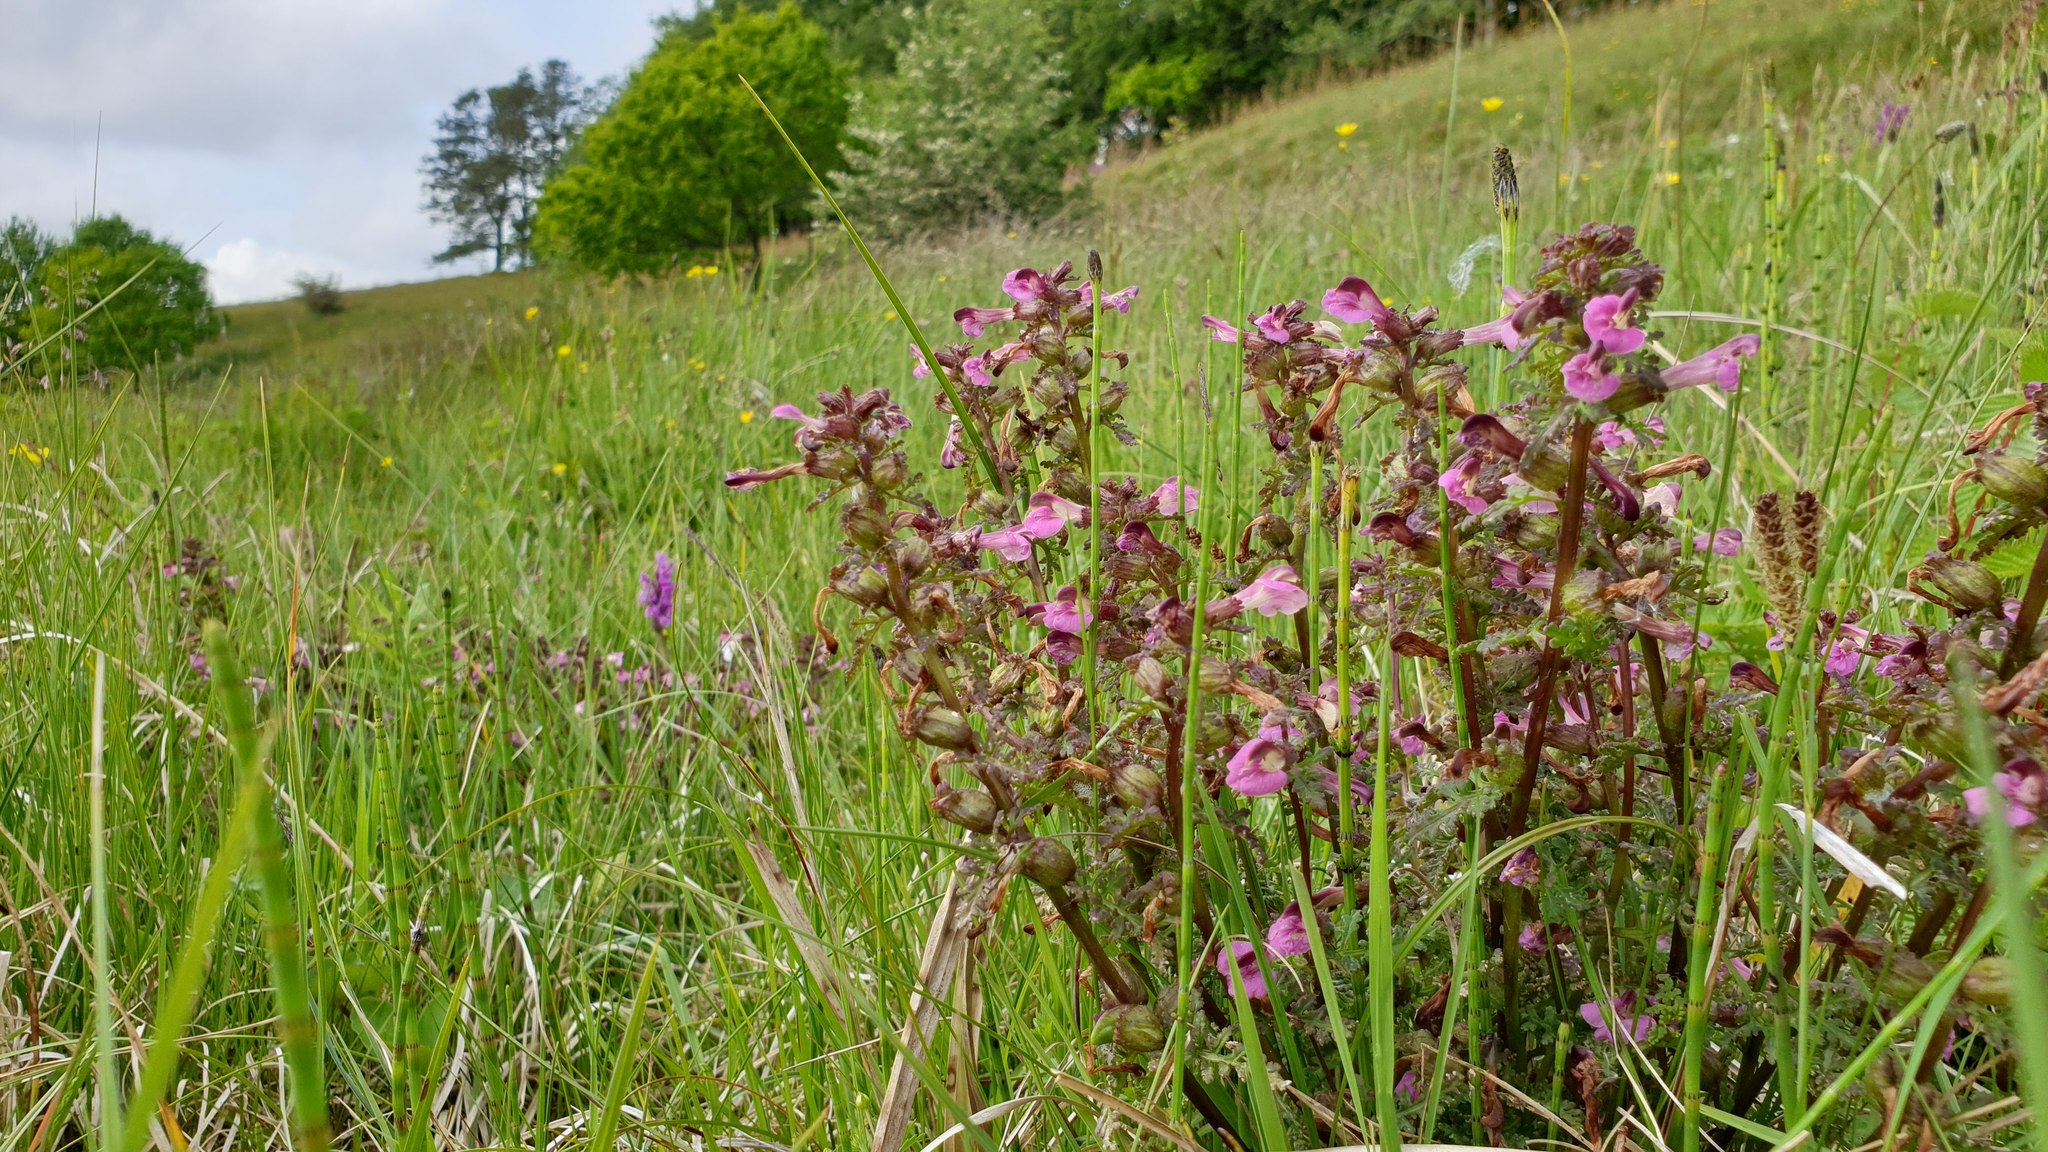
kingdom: Plantae
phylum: Tracheophyta
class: Magnoliopsida
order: Lamiales
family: Orobanchaceae
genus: Pedicularis
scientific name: Pedicularis palustris
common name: Marsh lousewort
